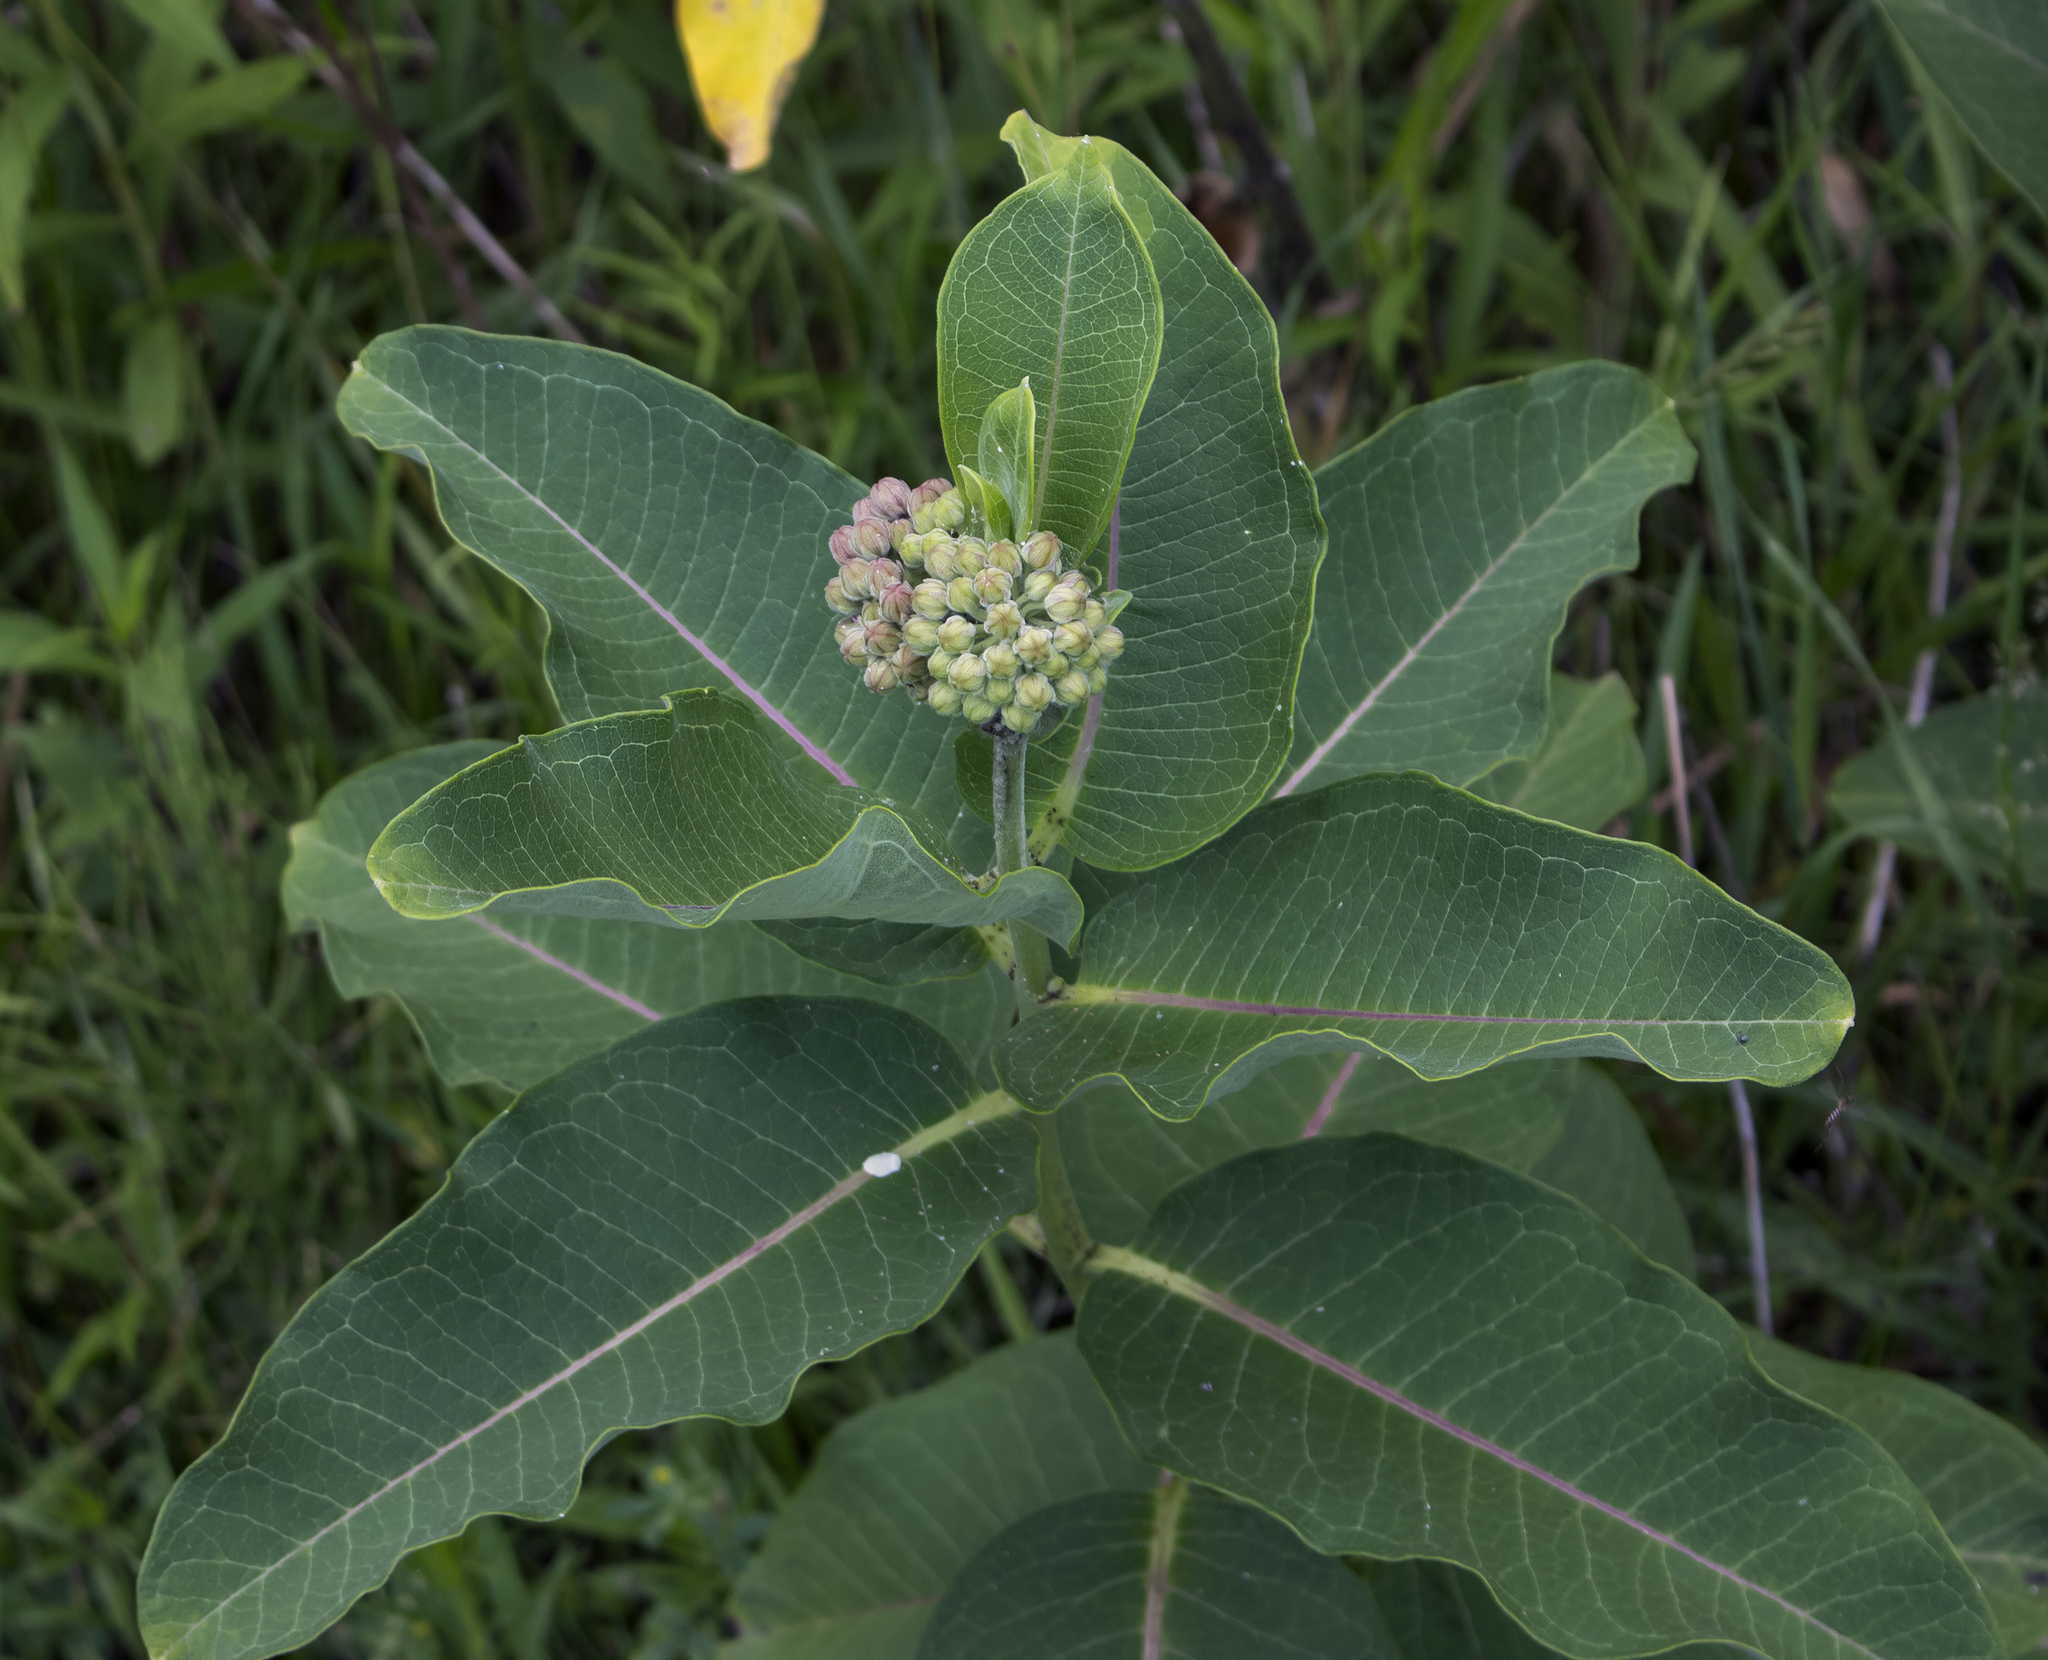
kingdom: Plantae
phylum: Tracheophyta
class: Magnoliopsida
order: Gentianales
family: Apocynaceae
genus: Asclepias
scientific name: Asclepias syriaca
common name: Common milkweed
